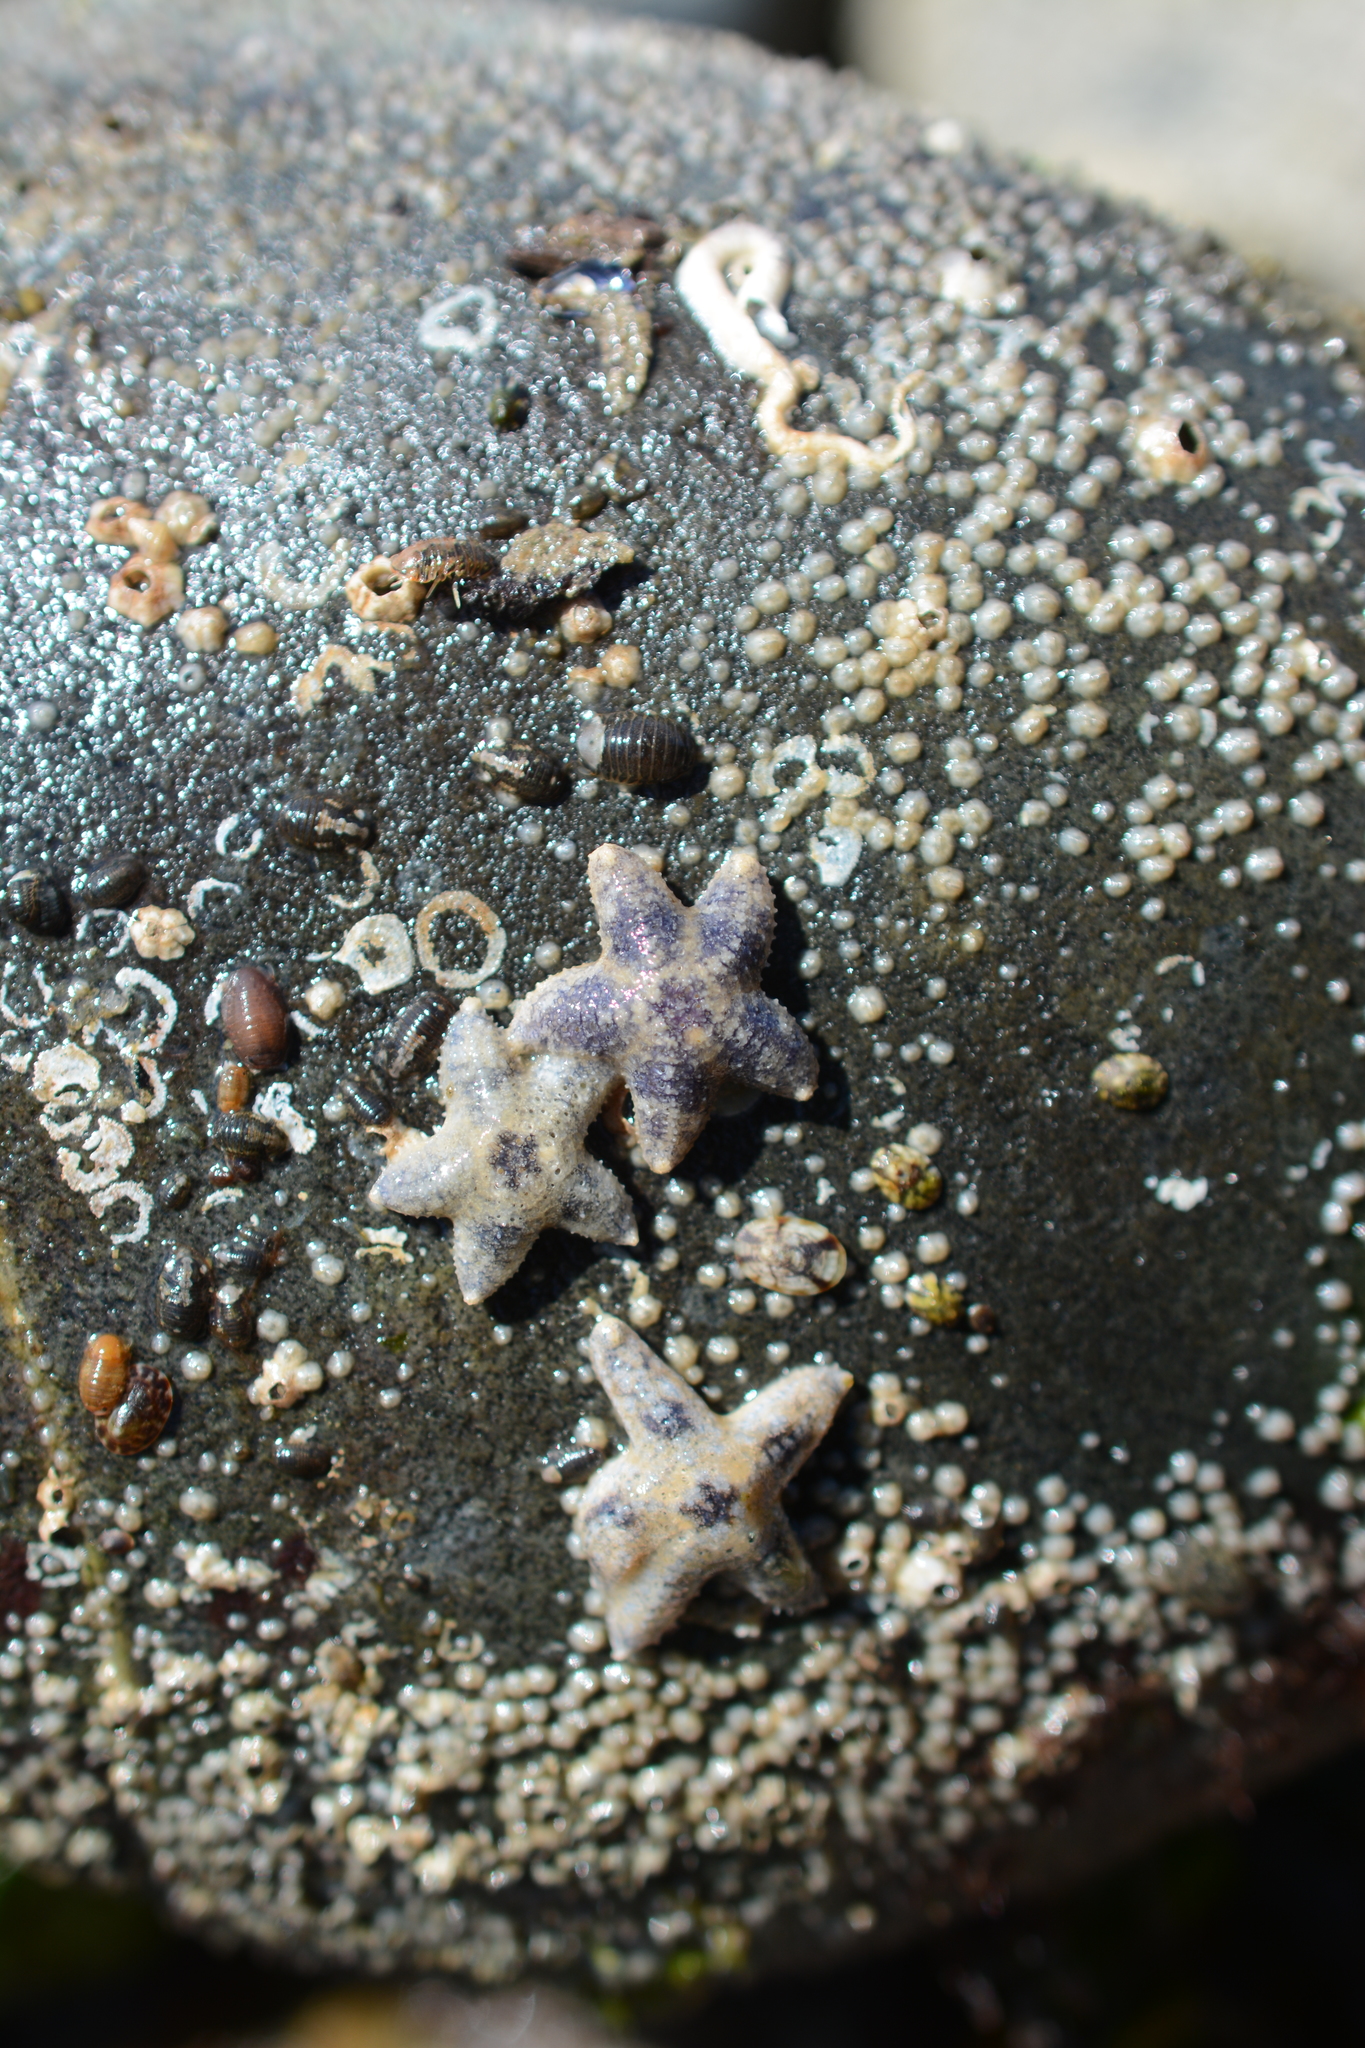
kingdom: Animalia
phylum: Echinodermata
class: Asteroidea
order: Forcipulatida
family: Asteriidae
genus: Pisaster
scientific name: Pisaster ochraceus
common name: Ochre stars
